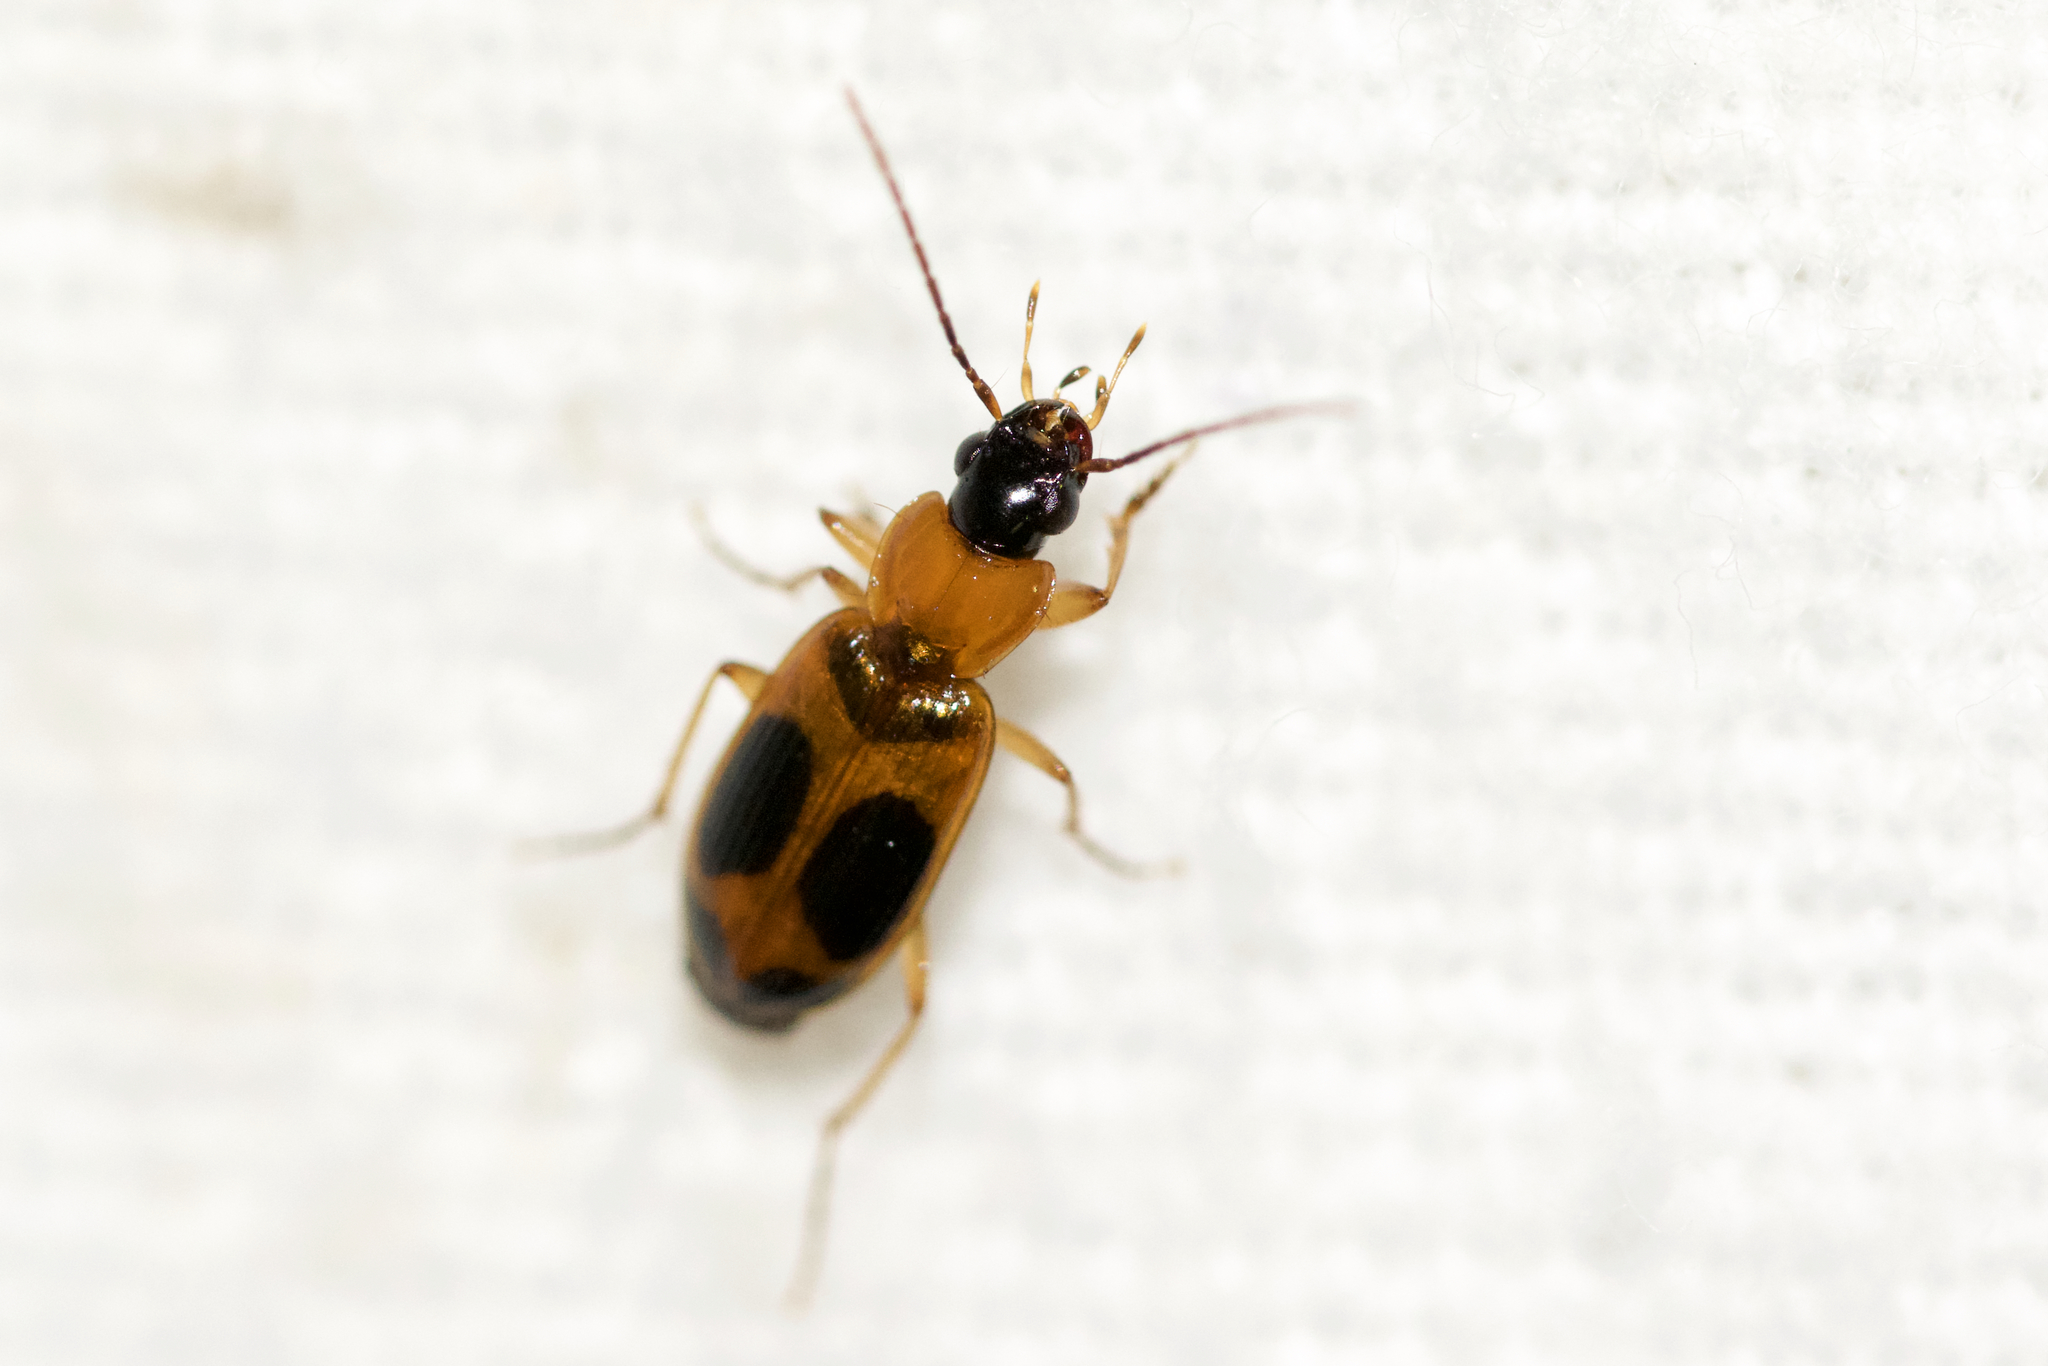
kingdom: Animalia
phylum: Arthropoda
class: Insecta
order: Coleoptera
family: Carabidae
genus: Badister
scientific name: Badister neopulchellus
